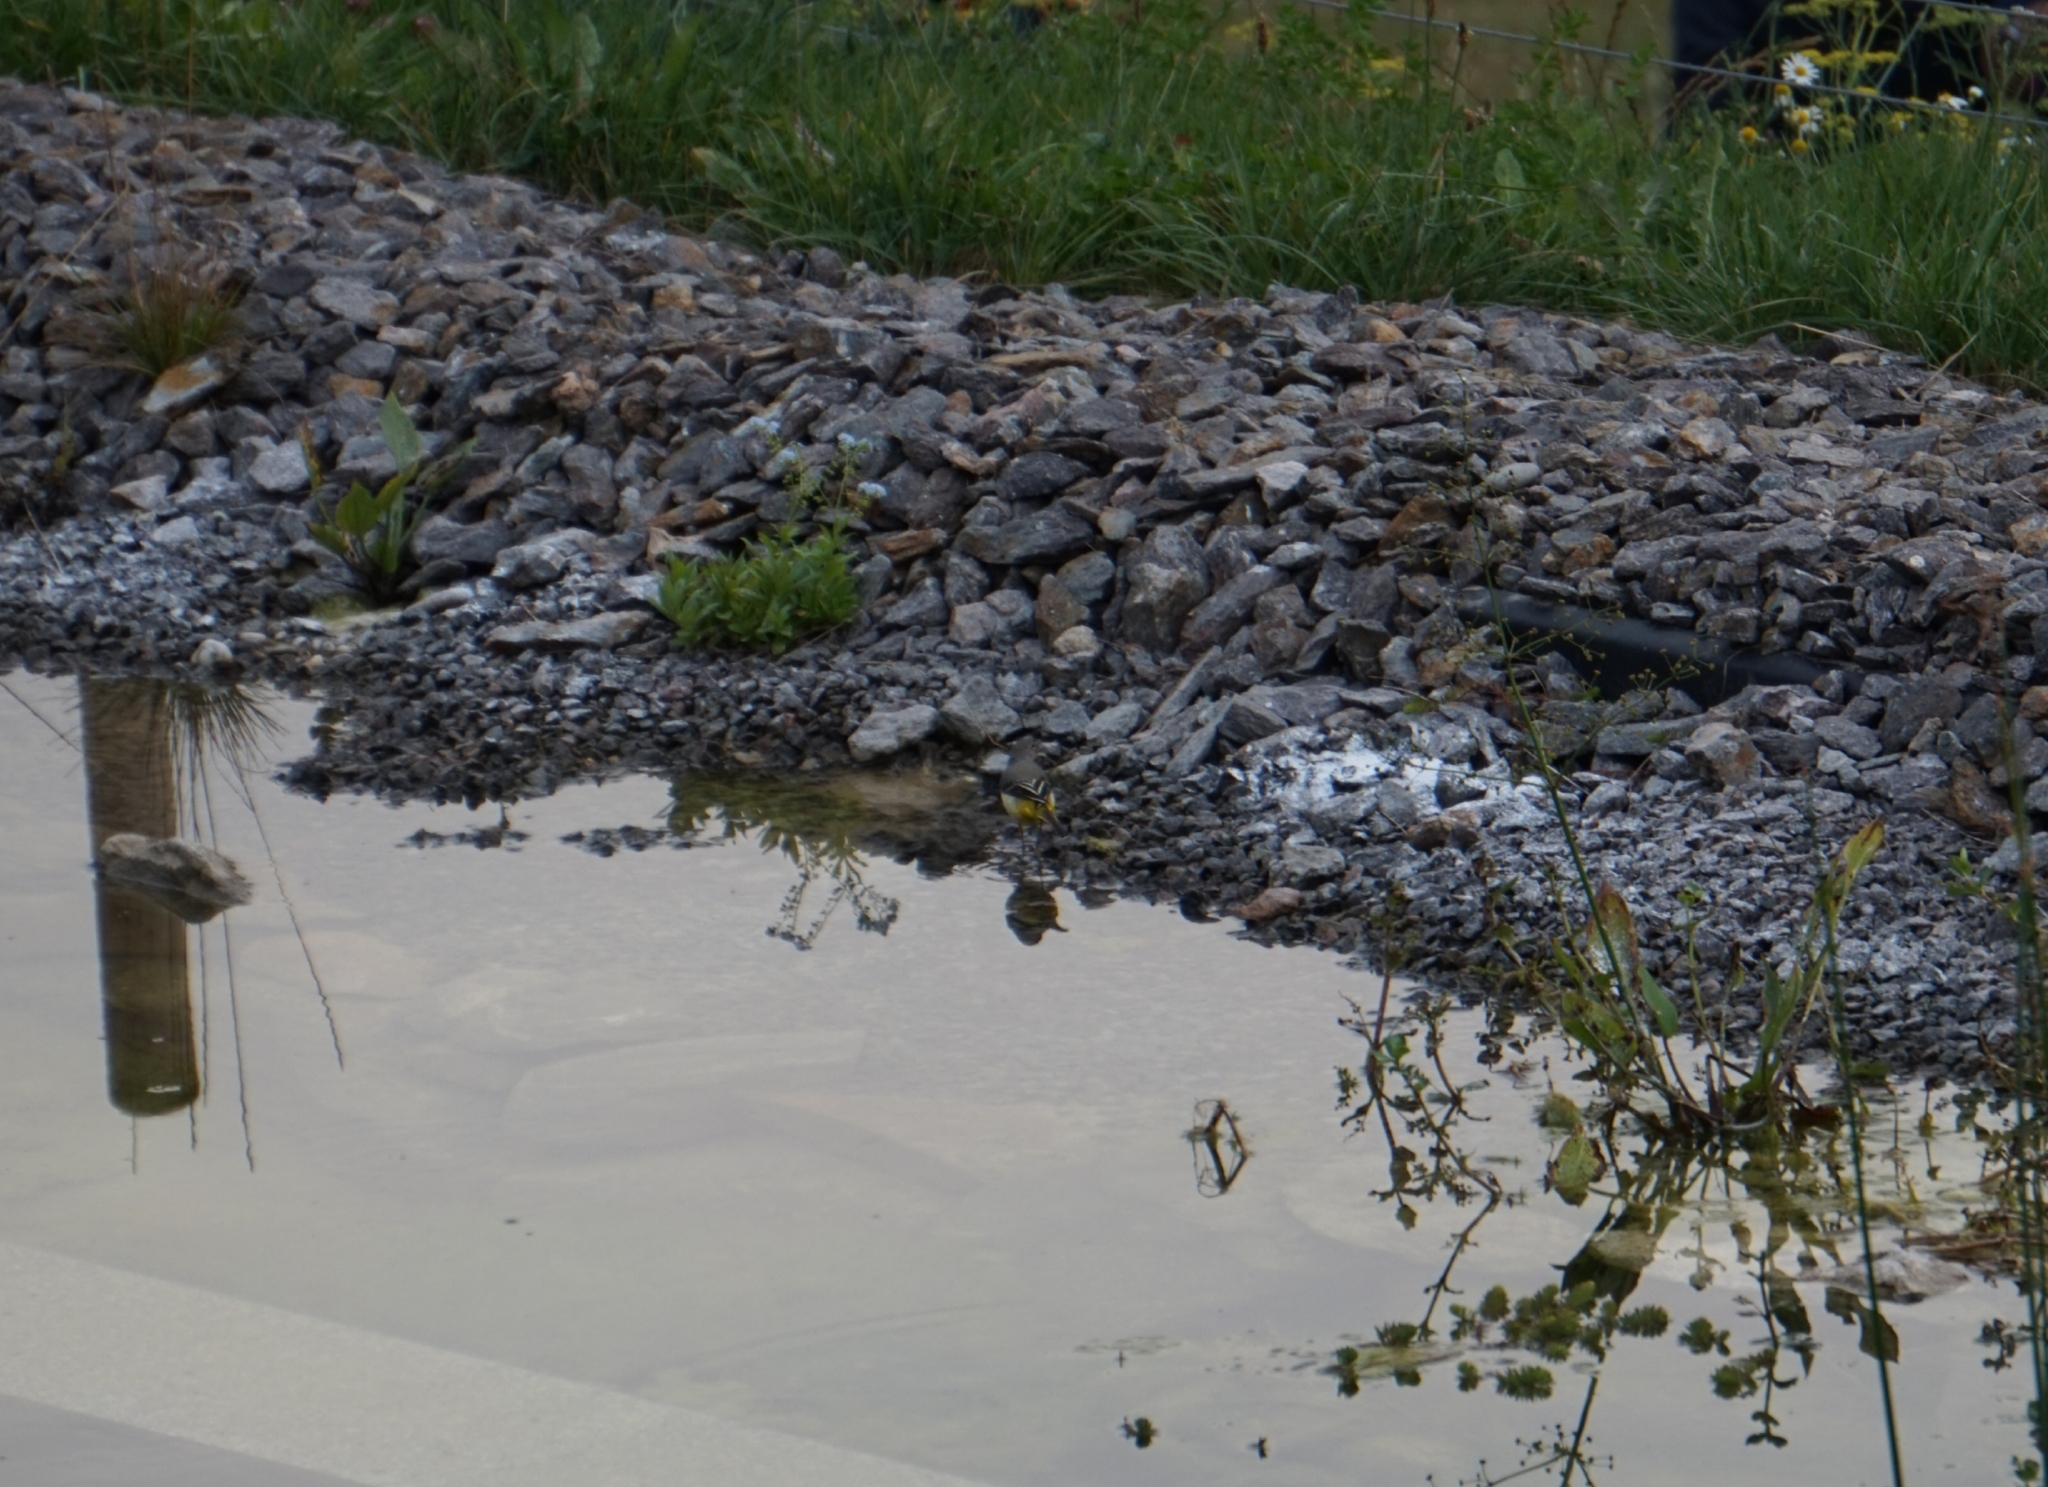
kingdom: Animalia
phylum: Chordata
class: Aves
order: Passeriformes
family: Motacillidae
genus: Motacilla
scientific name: Motacilla cinerea
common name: Grey wagtail
